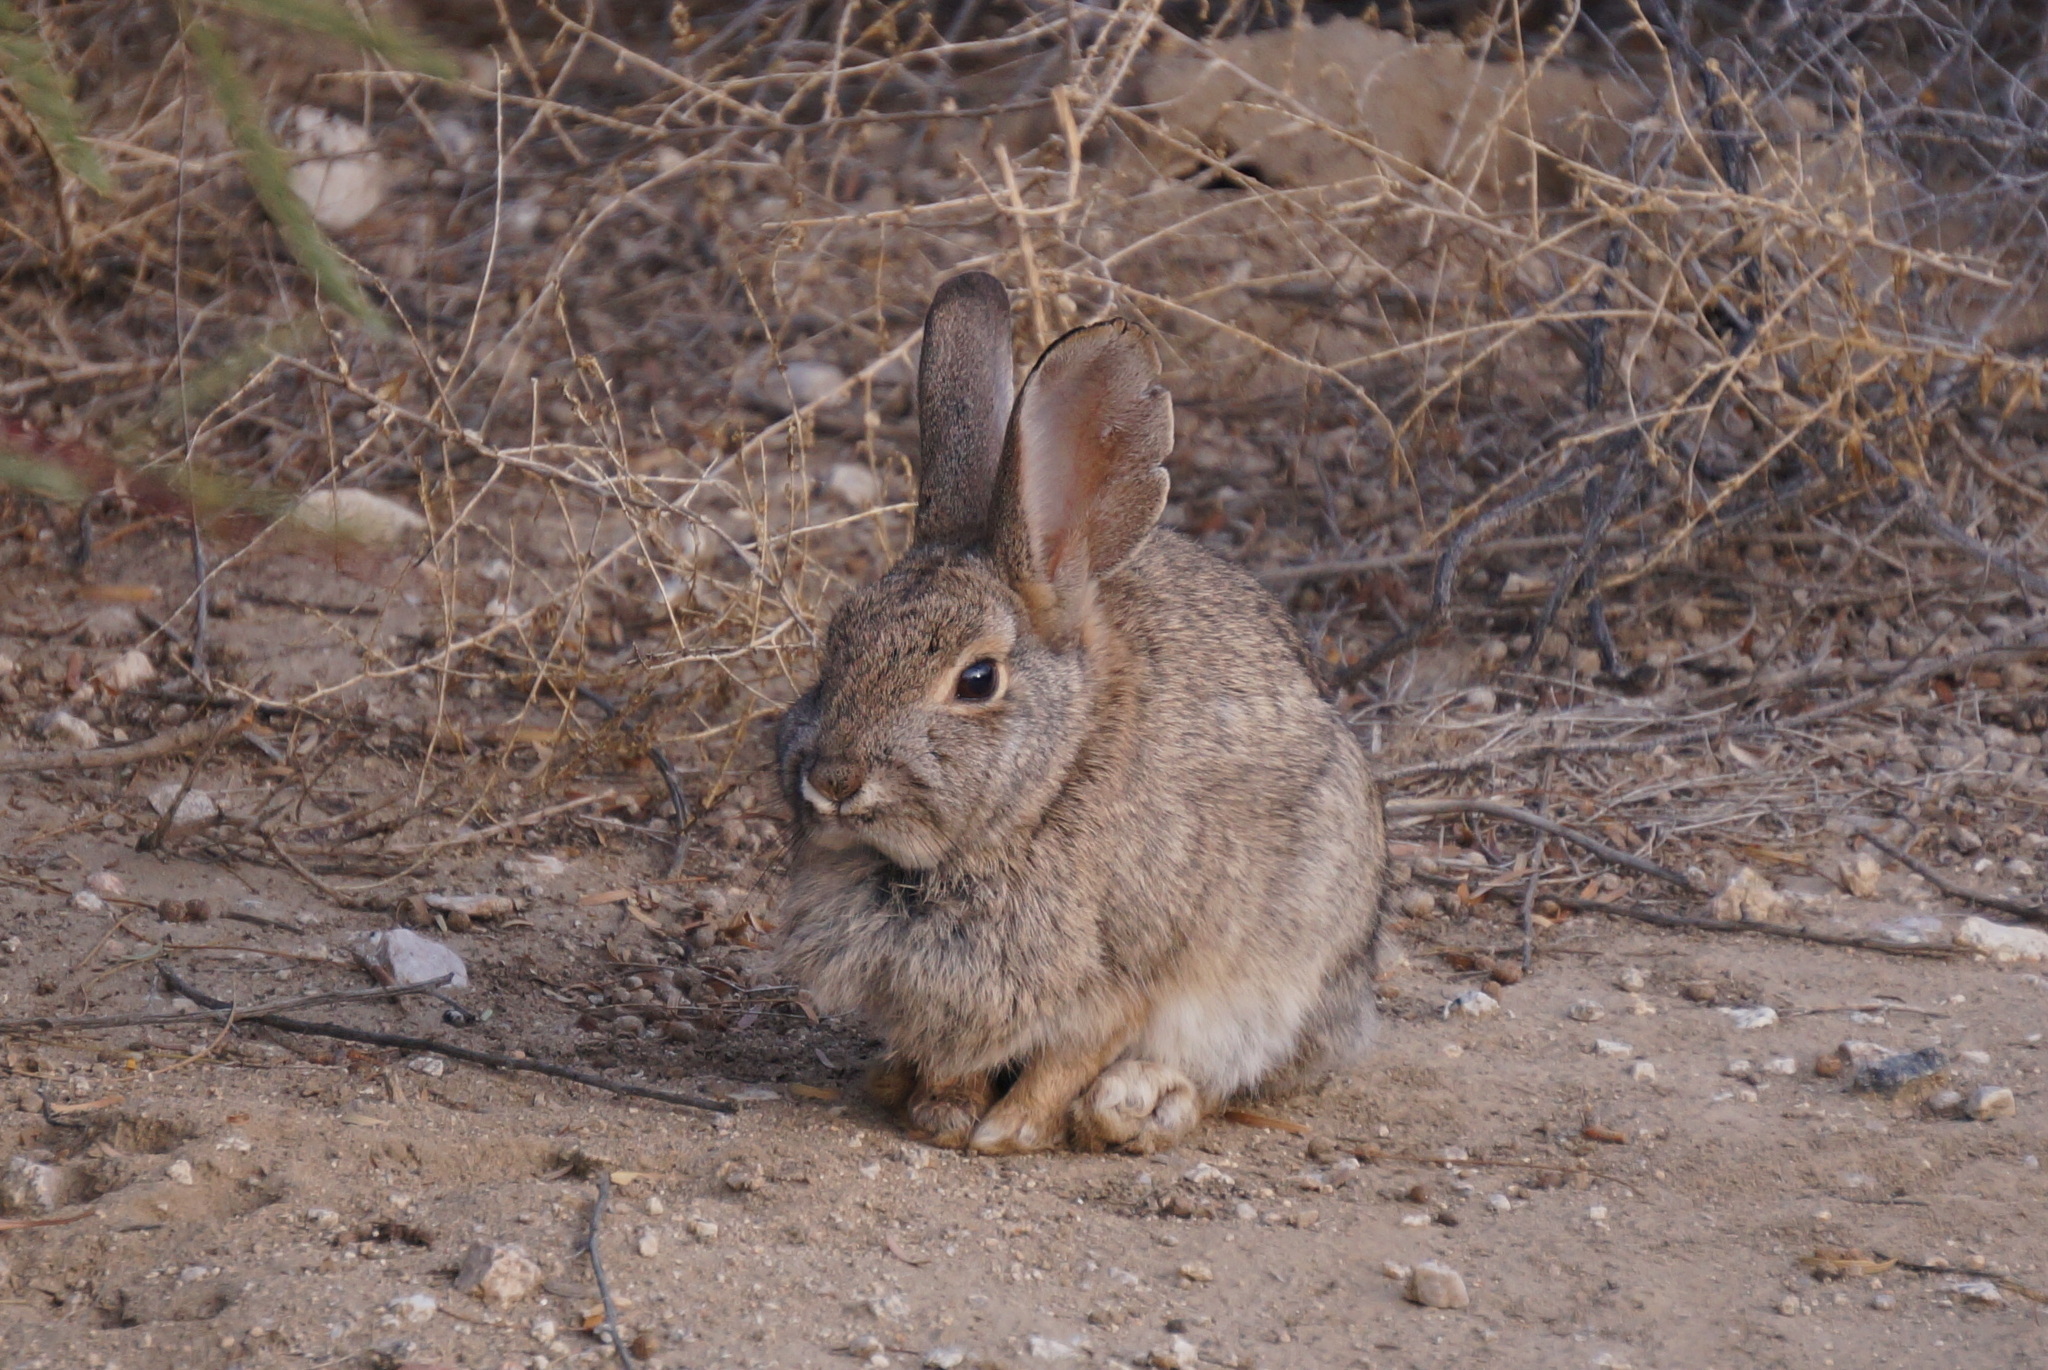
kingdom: Animalia
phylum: Chordata
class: Mammalia
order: Lagomorpha
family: Leporidae
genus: Sylvilagus
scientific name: Sylvilagus audubonii
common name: Desert cottontail
